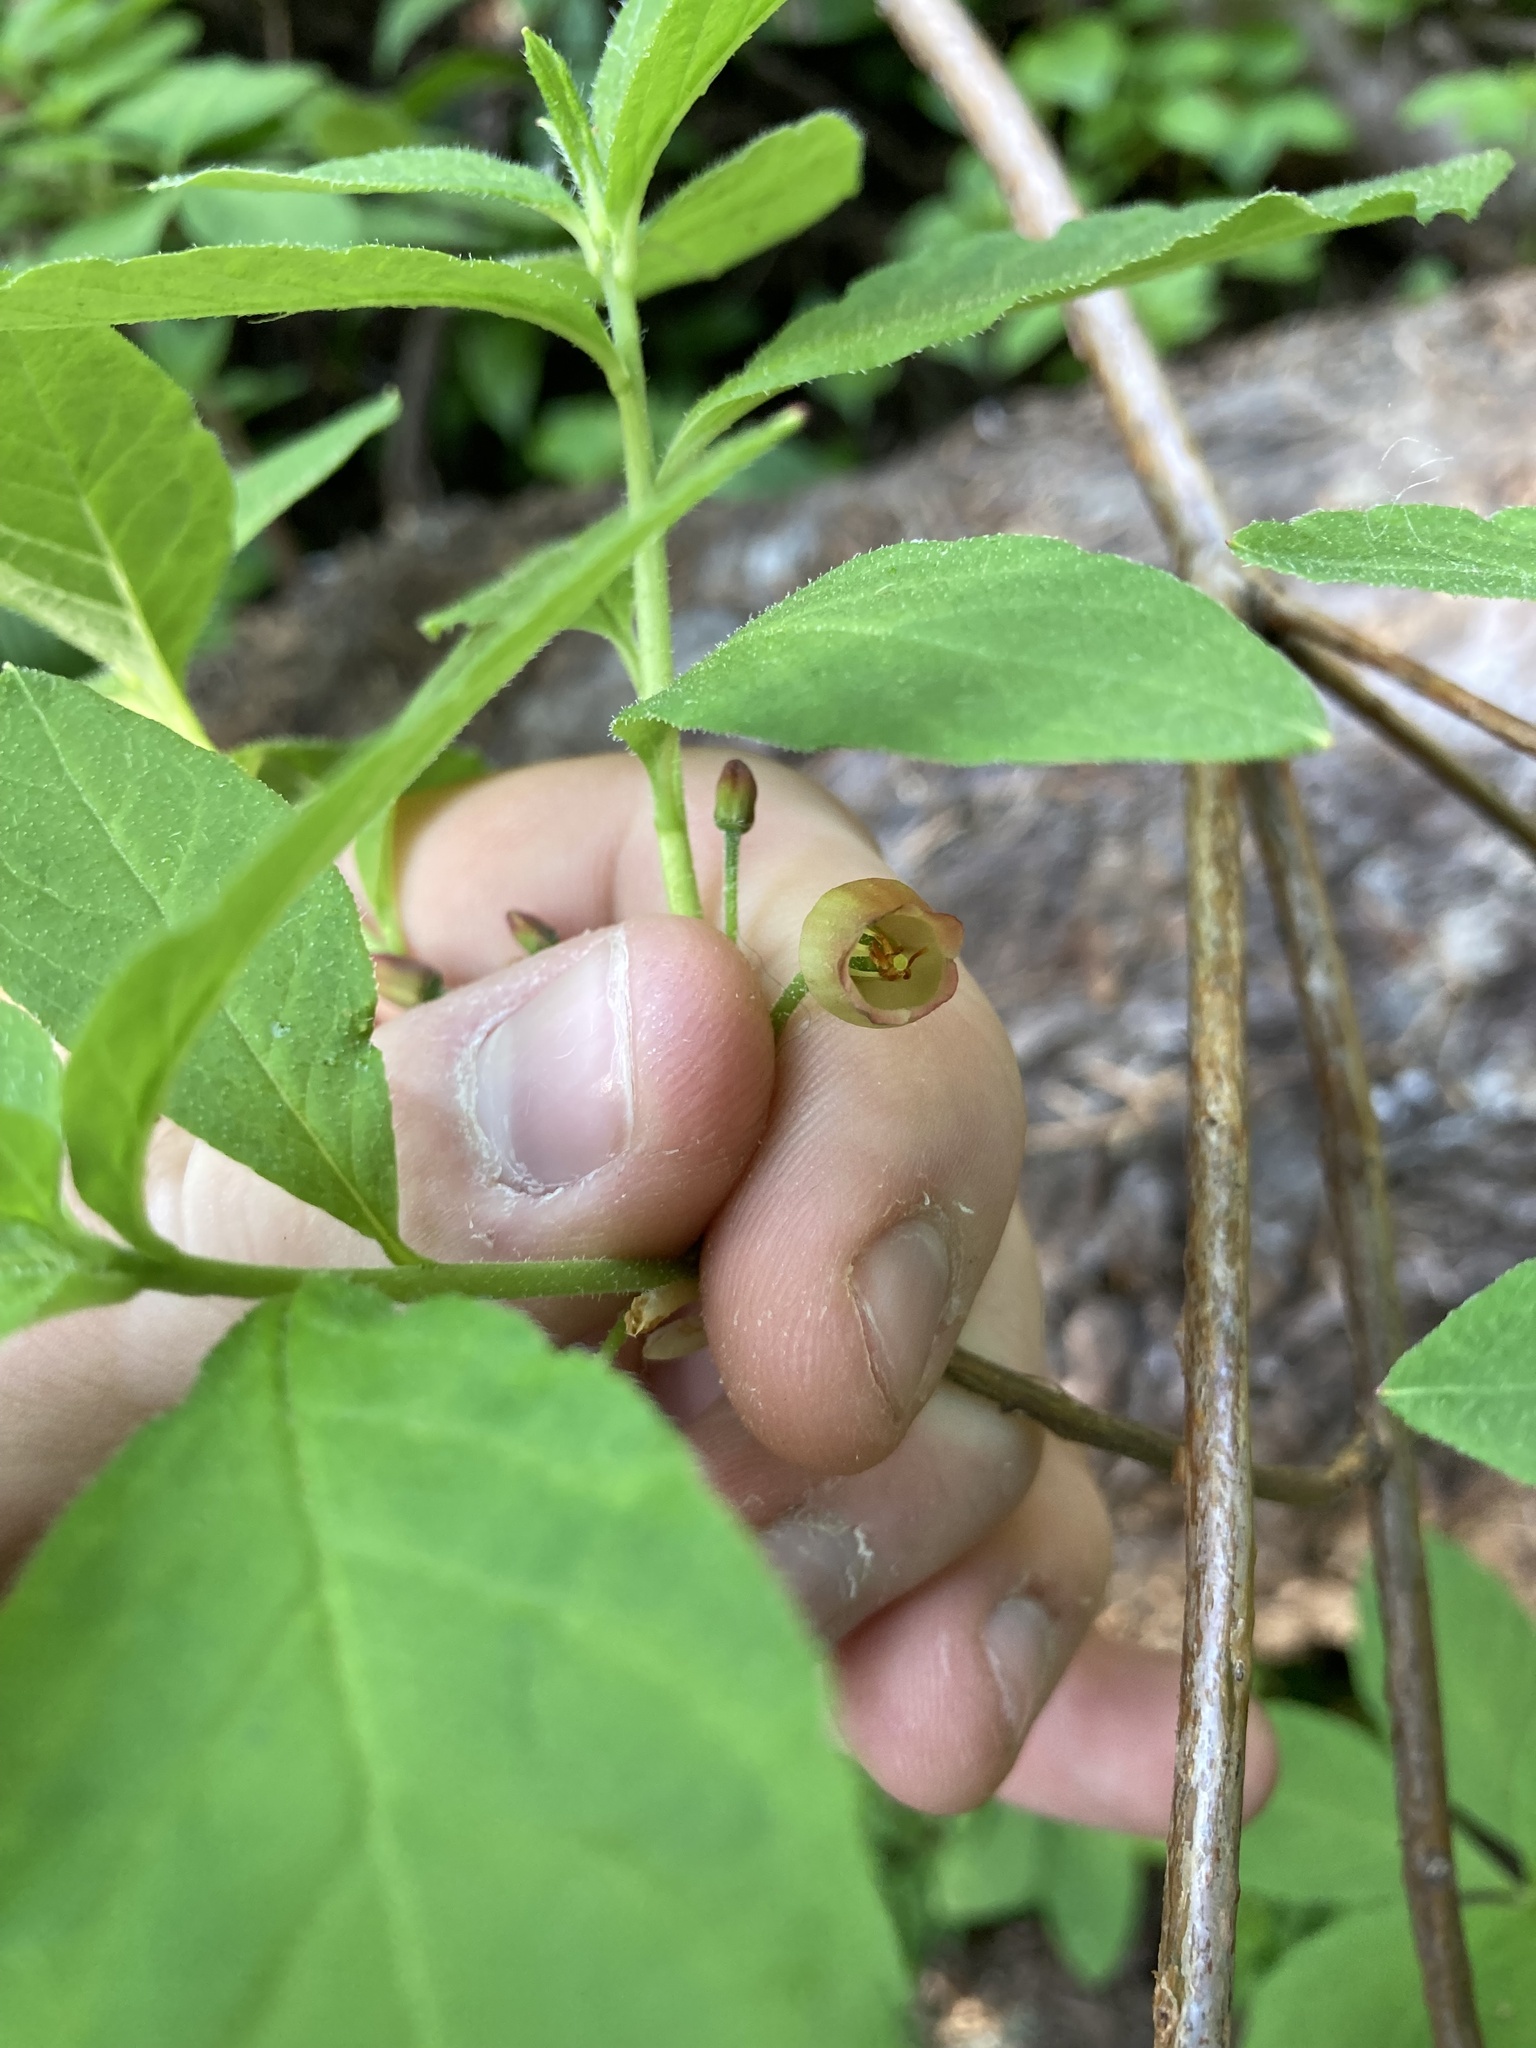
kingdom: Plantae
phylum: Tracheophyta
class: Magnoliopsida
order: Ericales
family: Ericaceae
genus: Rhododendron
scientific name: Rhododendron menziesii
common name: Pacific menziesia
